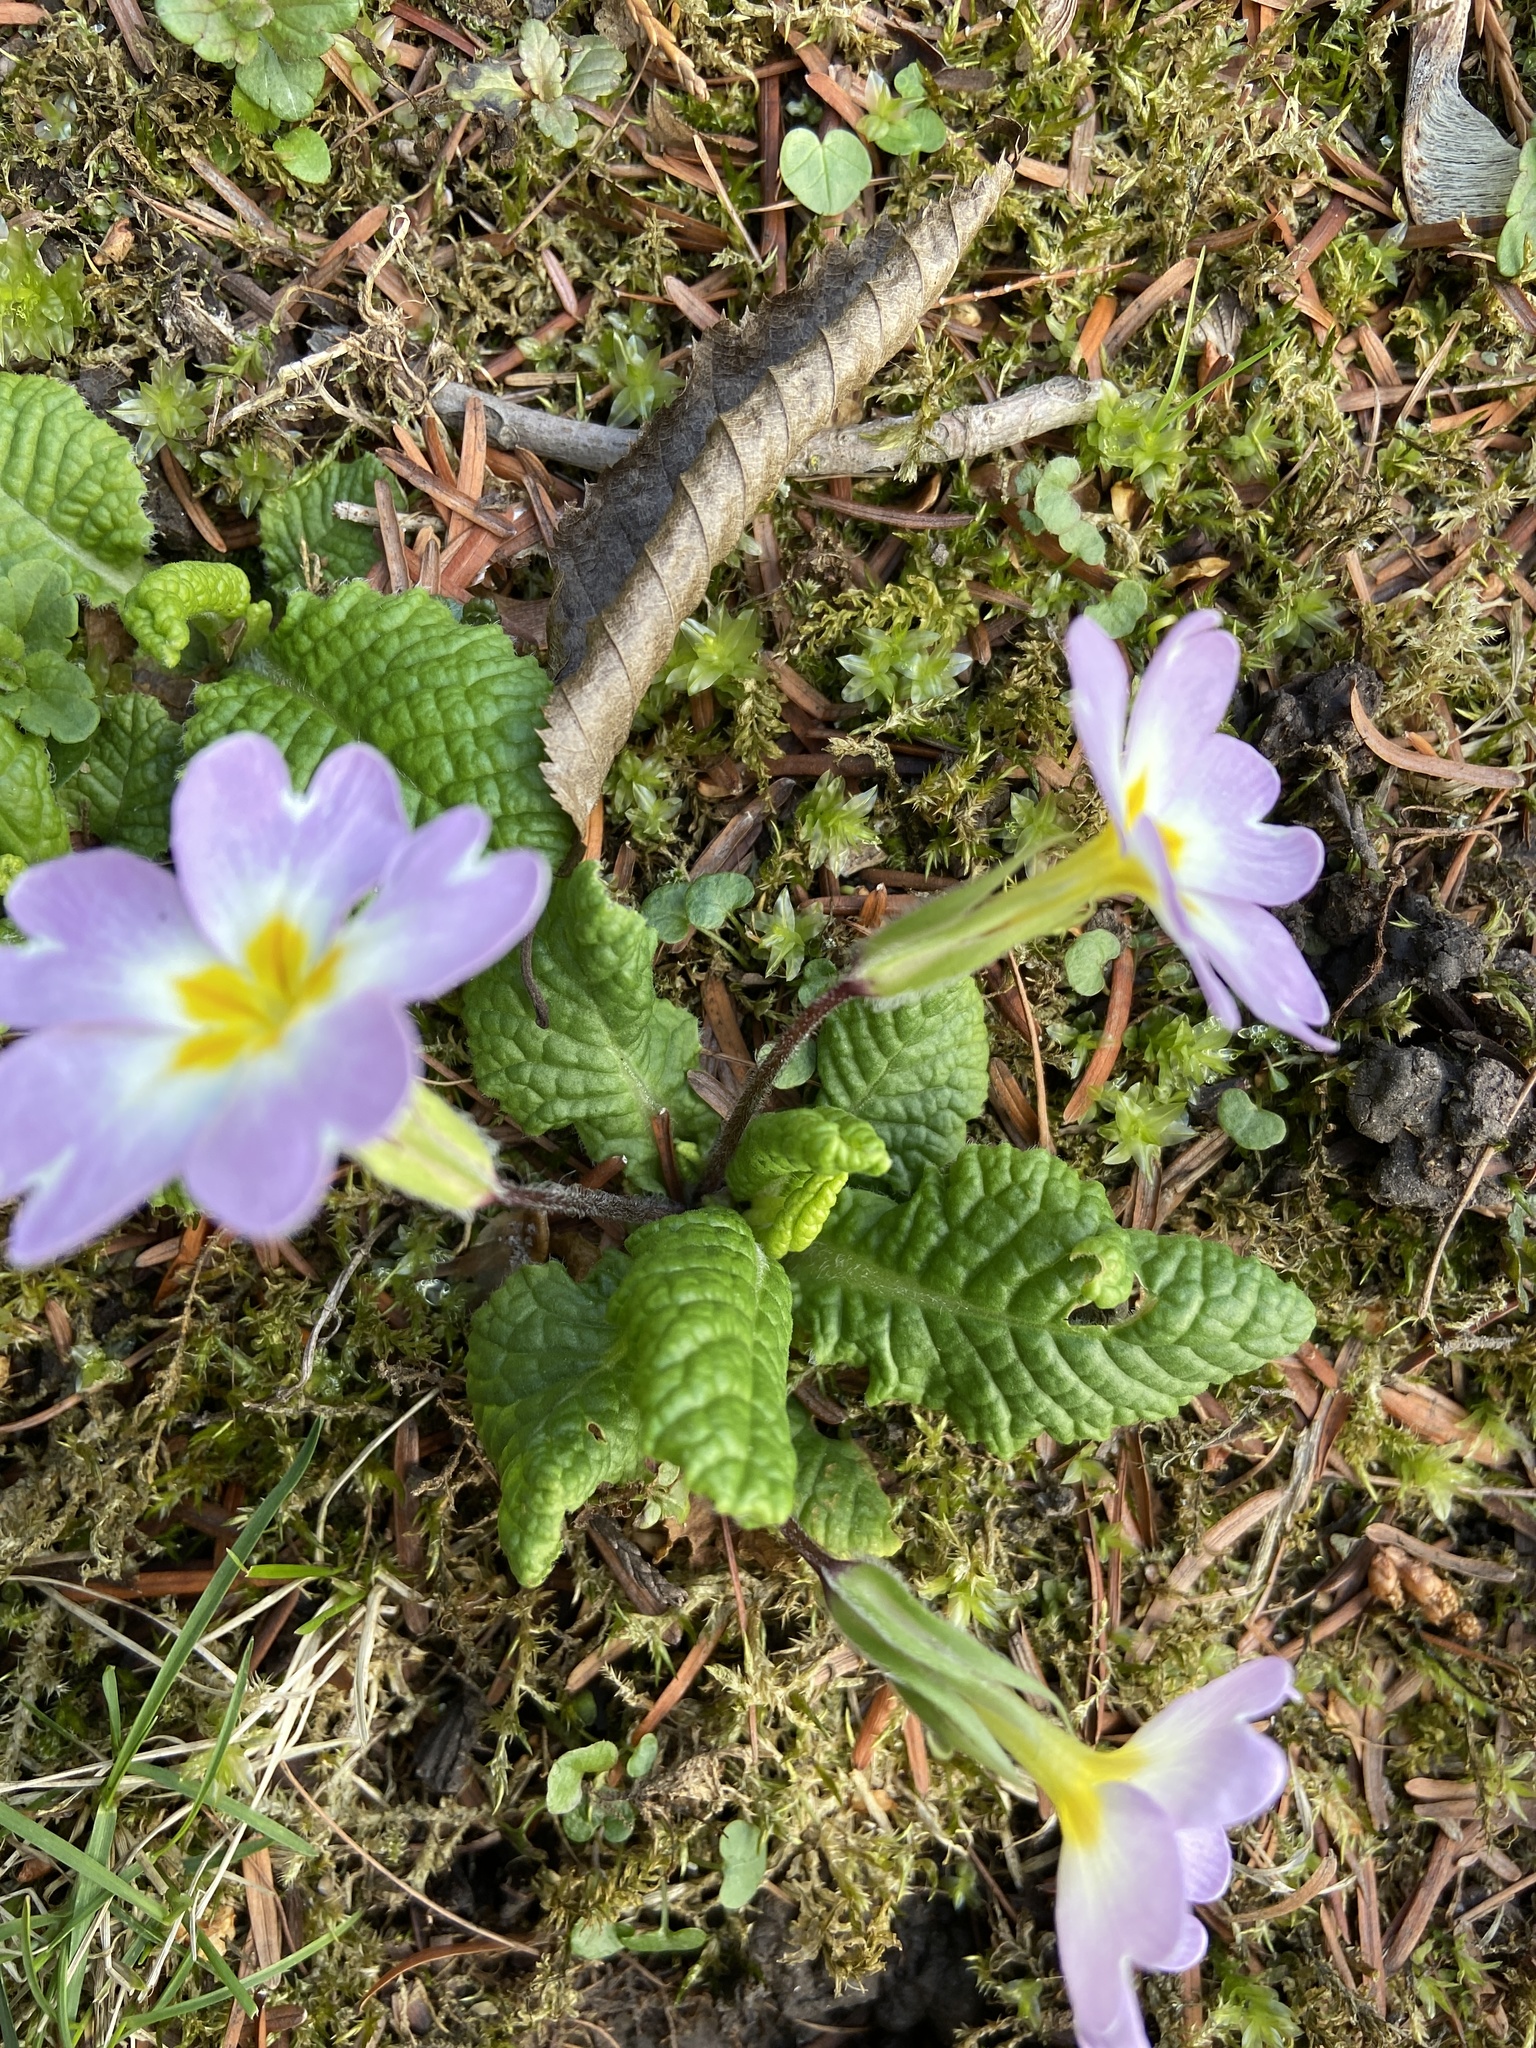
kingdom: Plantae
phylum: Tracheophyta
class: Magnoliopsida
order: Ericales
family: Primulaceae
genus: Primula
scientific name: Primula vulgaris
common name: Primrose
